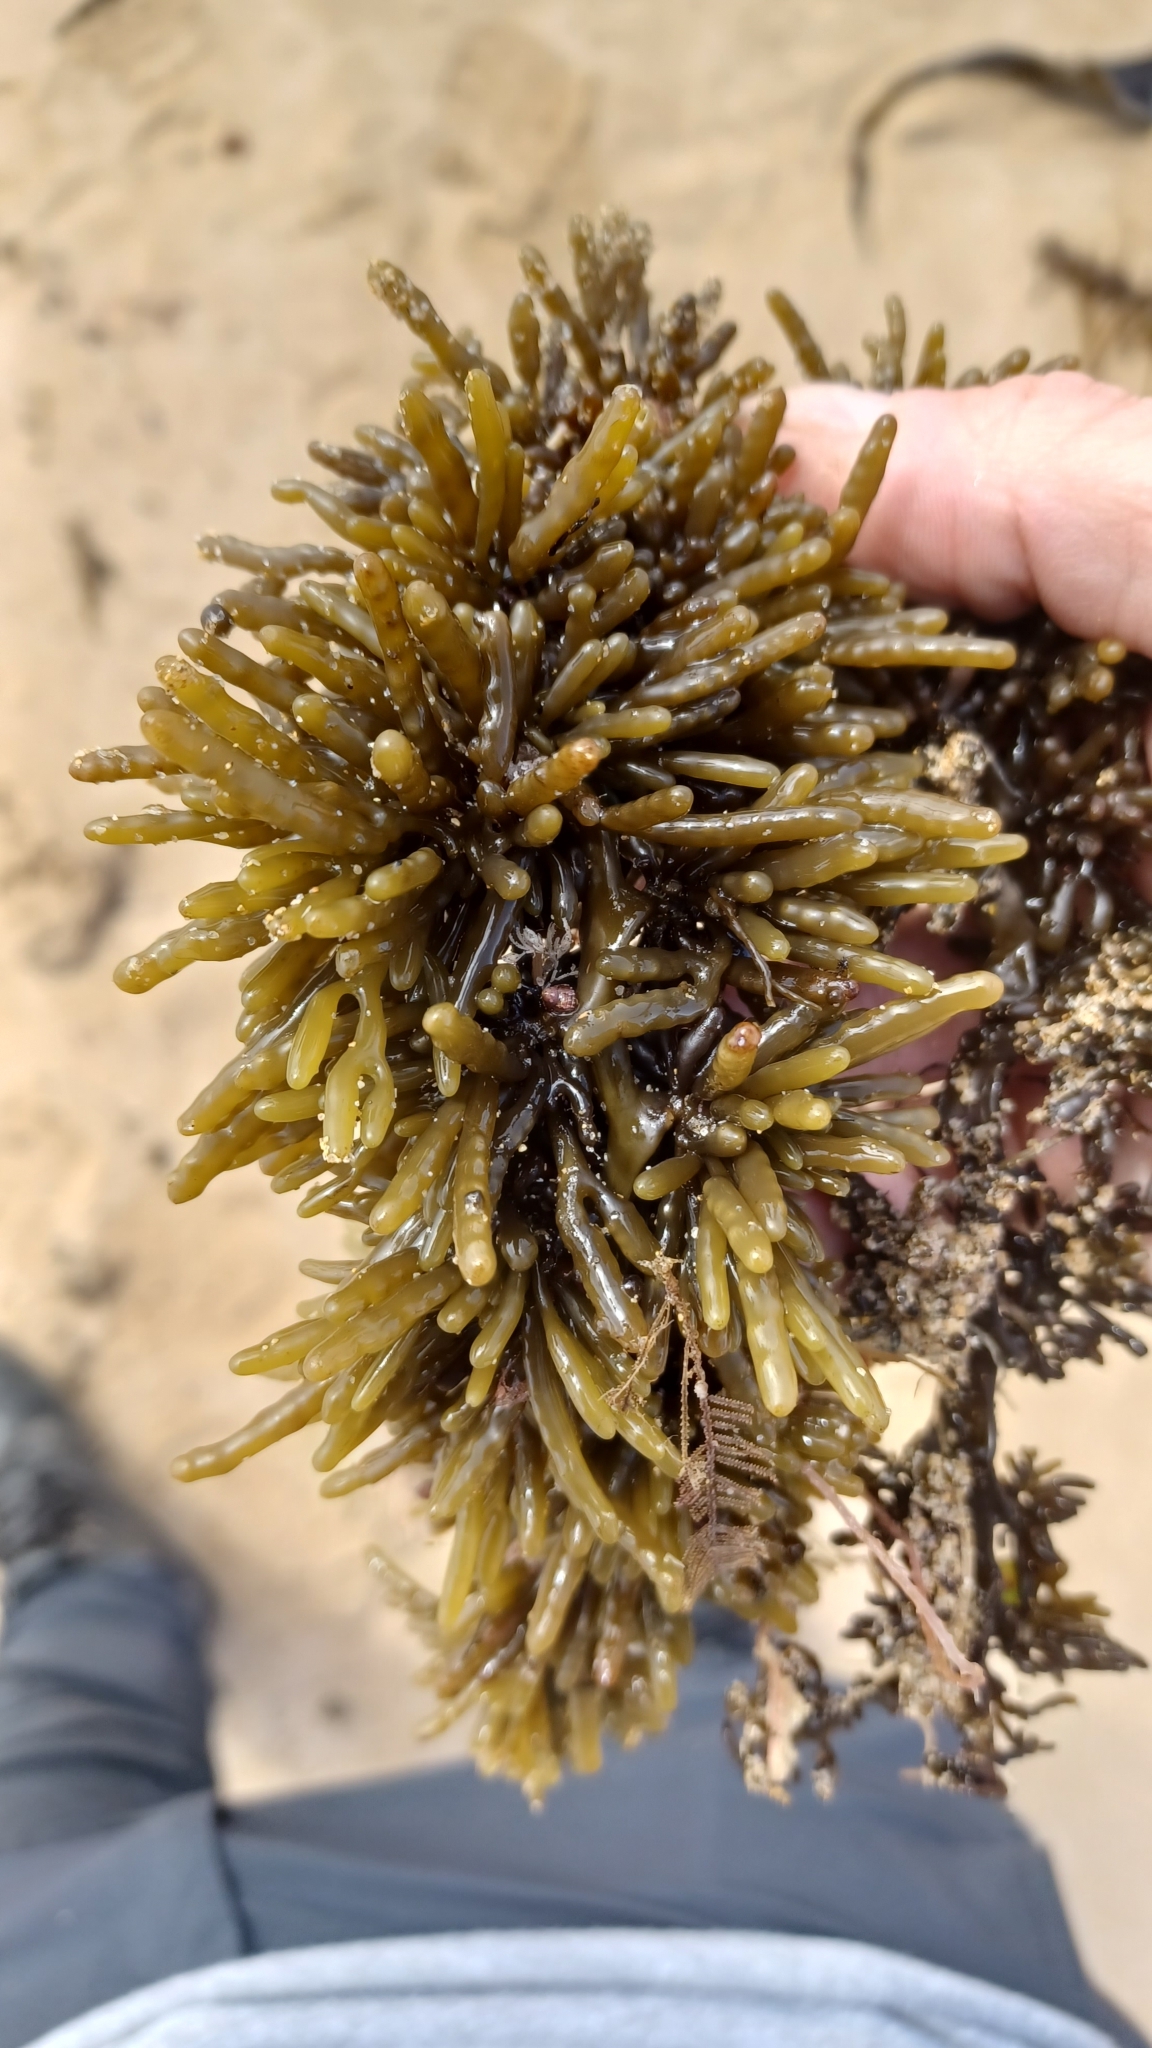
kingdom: Chromista
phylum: Ochrophyta
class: Phaeophyceae
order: Fucales
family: Sargassaceae
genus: Cystophora
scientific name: Cystophora torulosa
